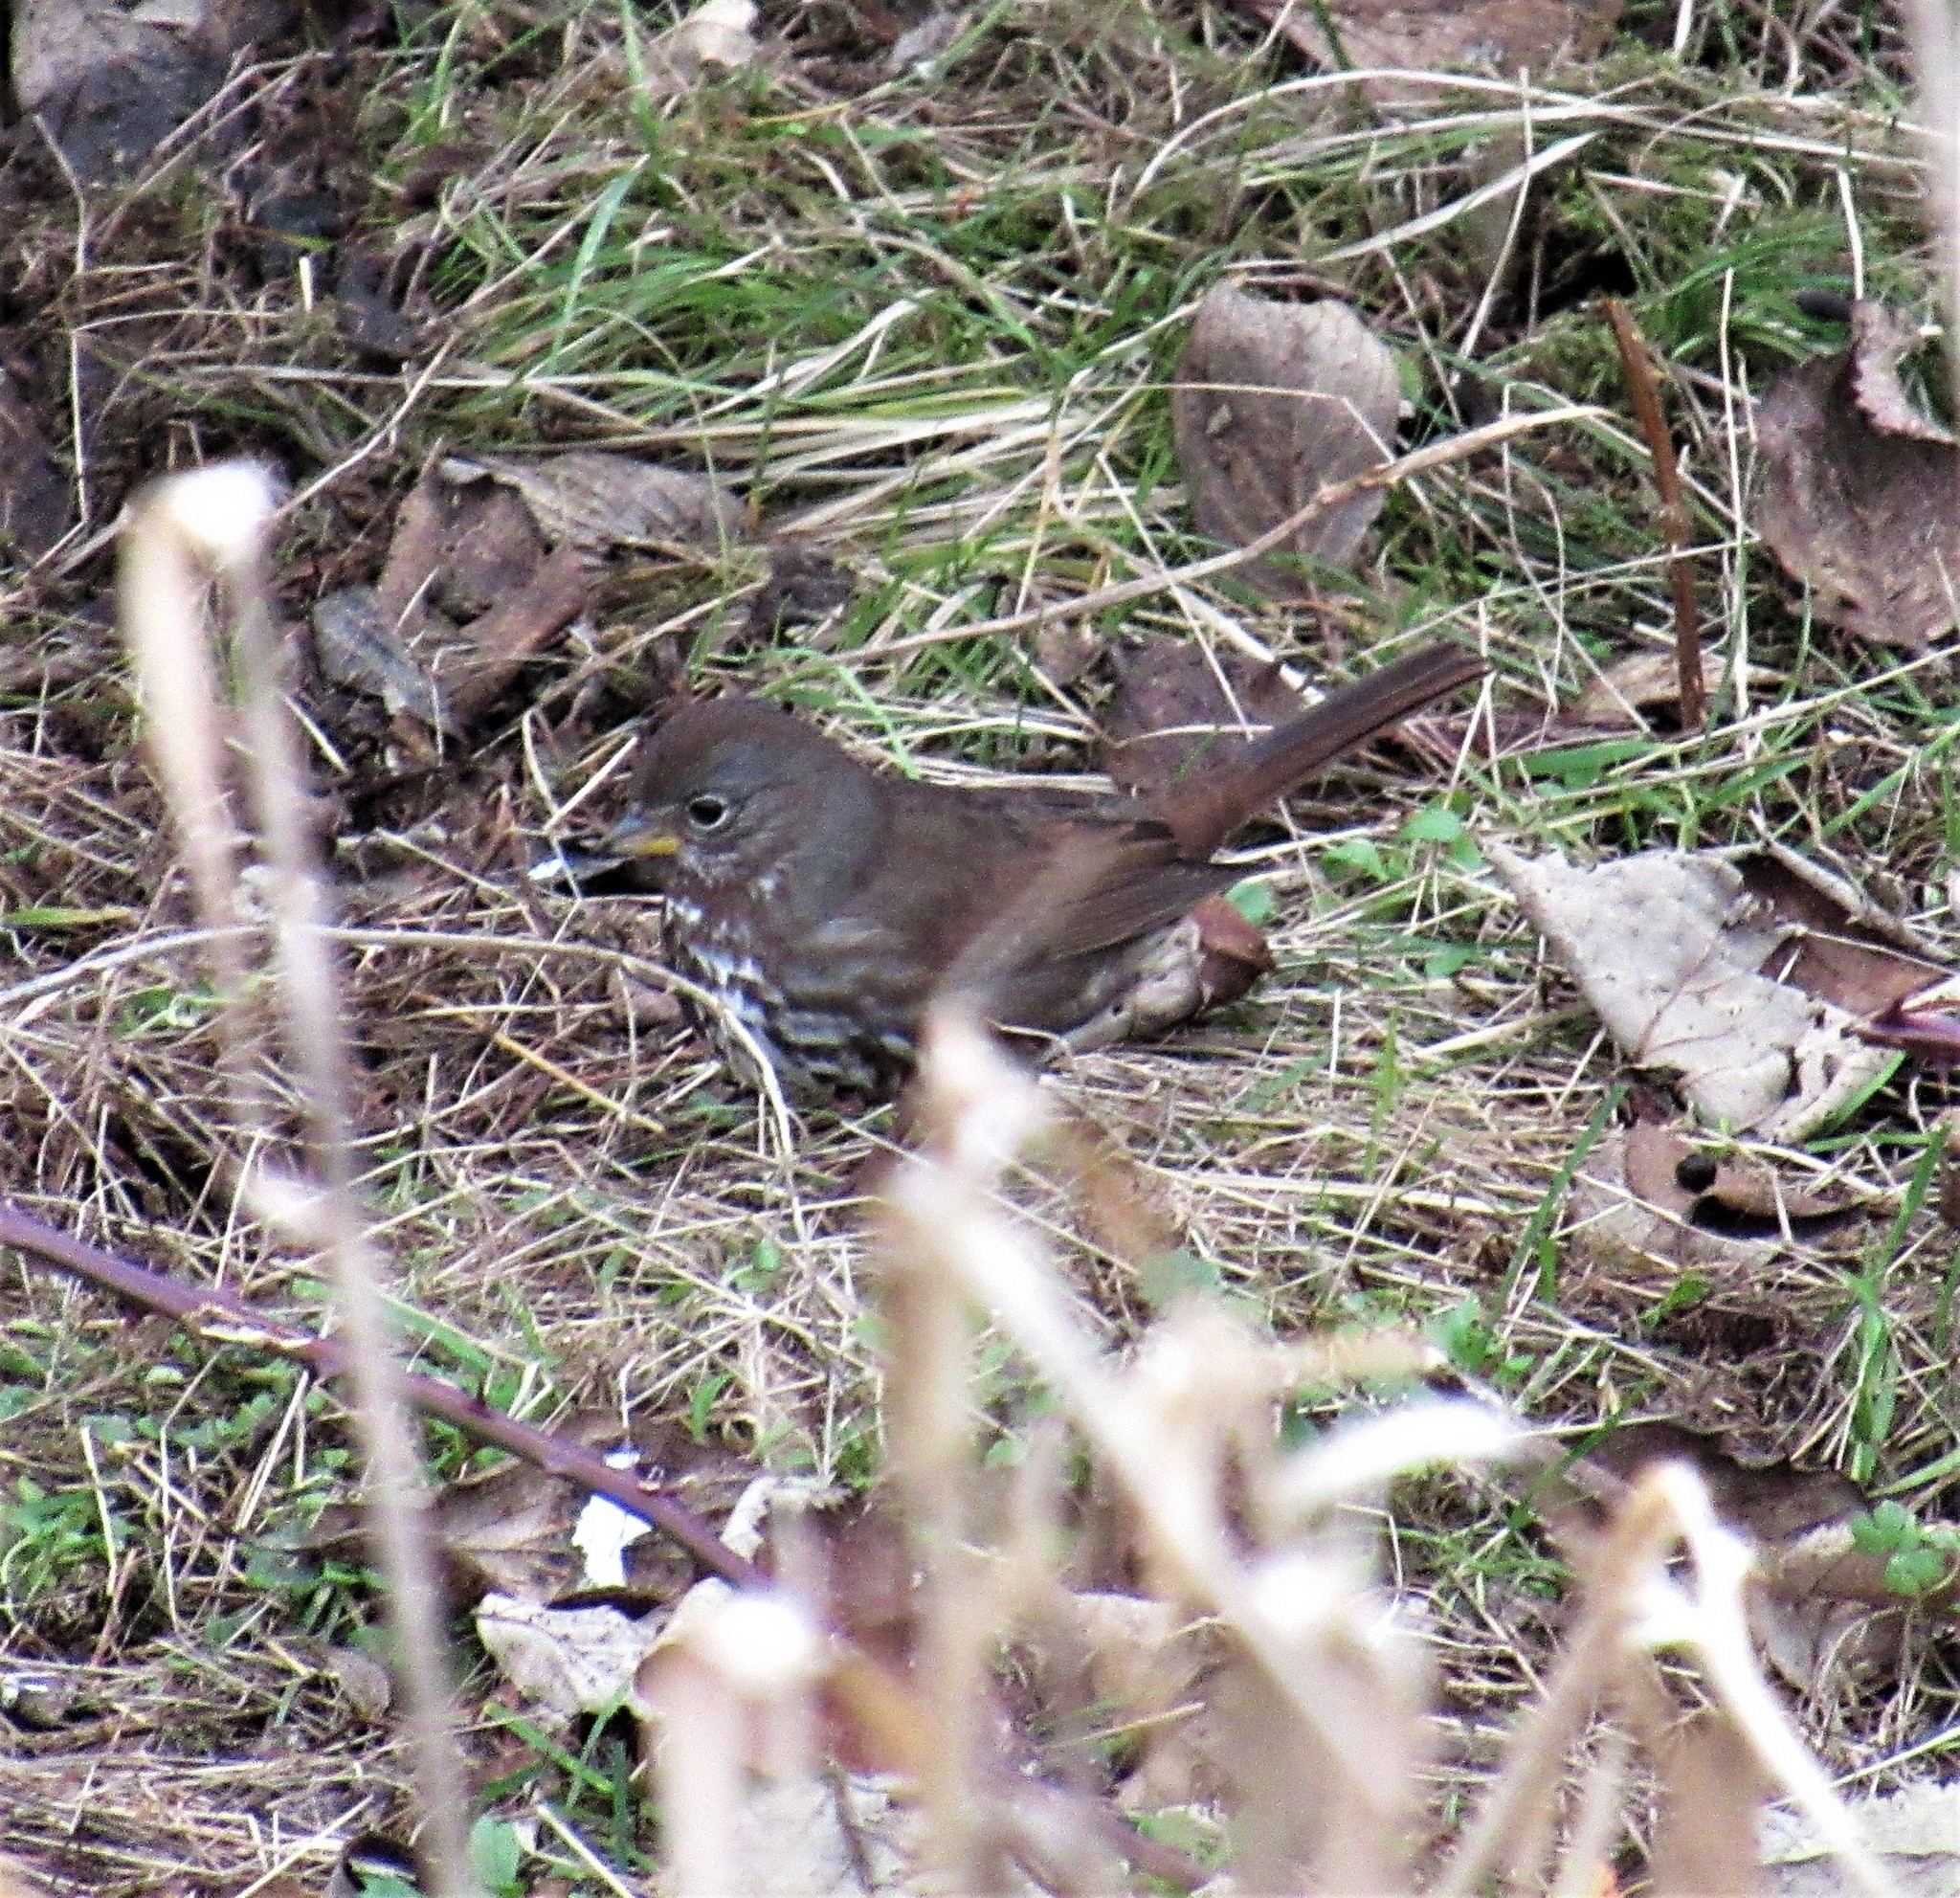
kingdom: Animalia
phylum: Chordata
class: Aves
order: Passeriformes
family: Passerellidae
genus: Passerella
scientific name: Passerella iliaca
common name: Fox sparrow
